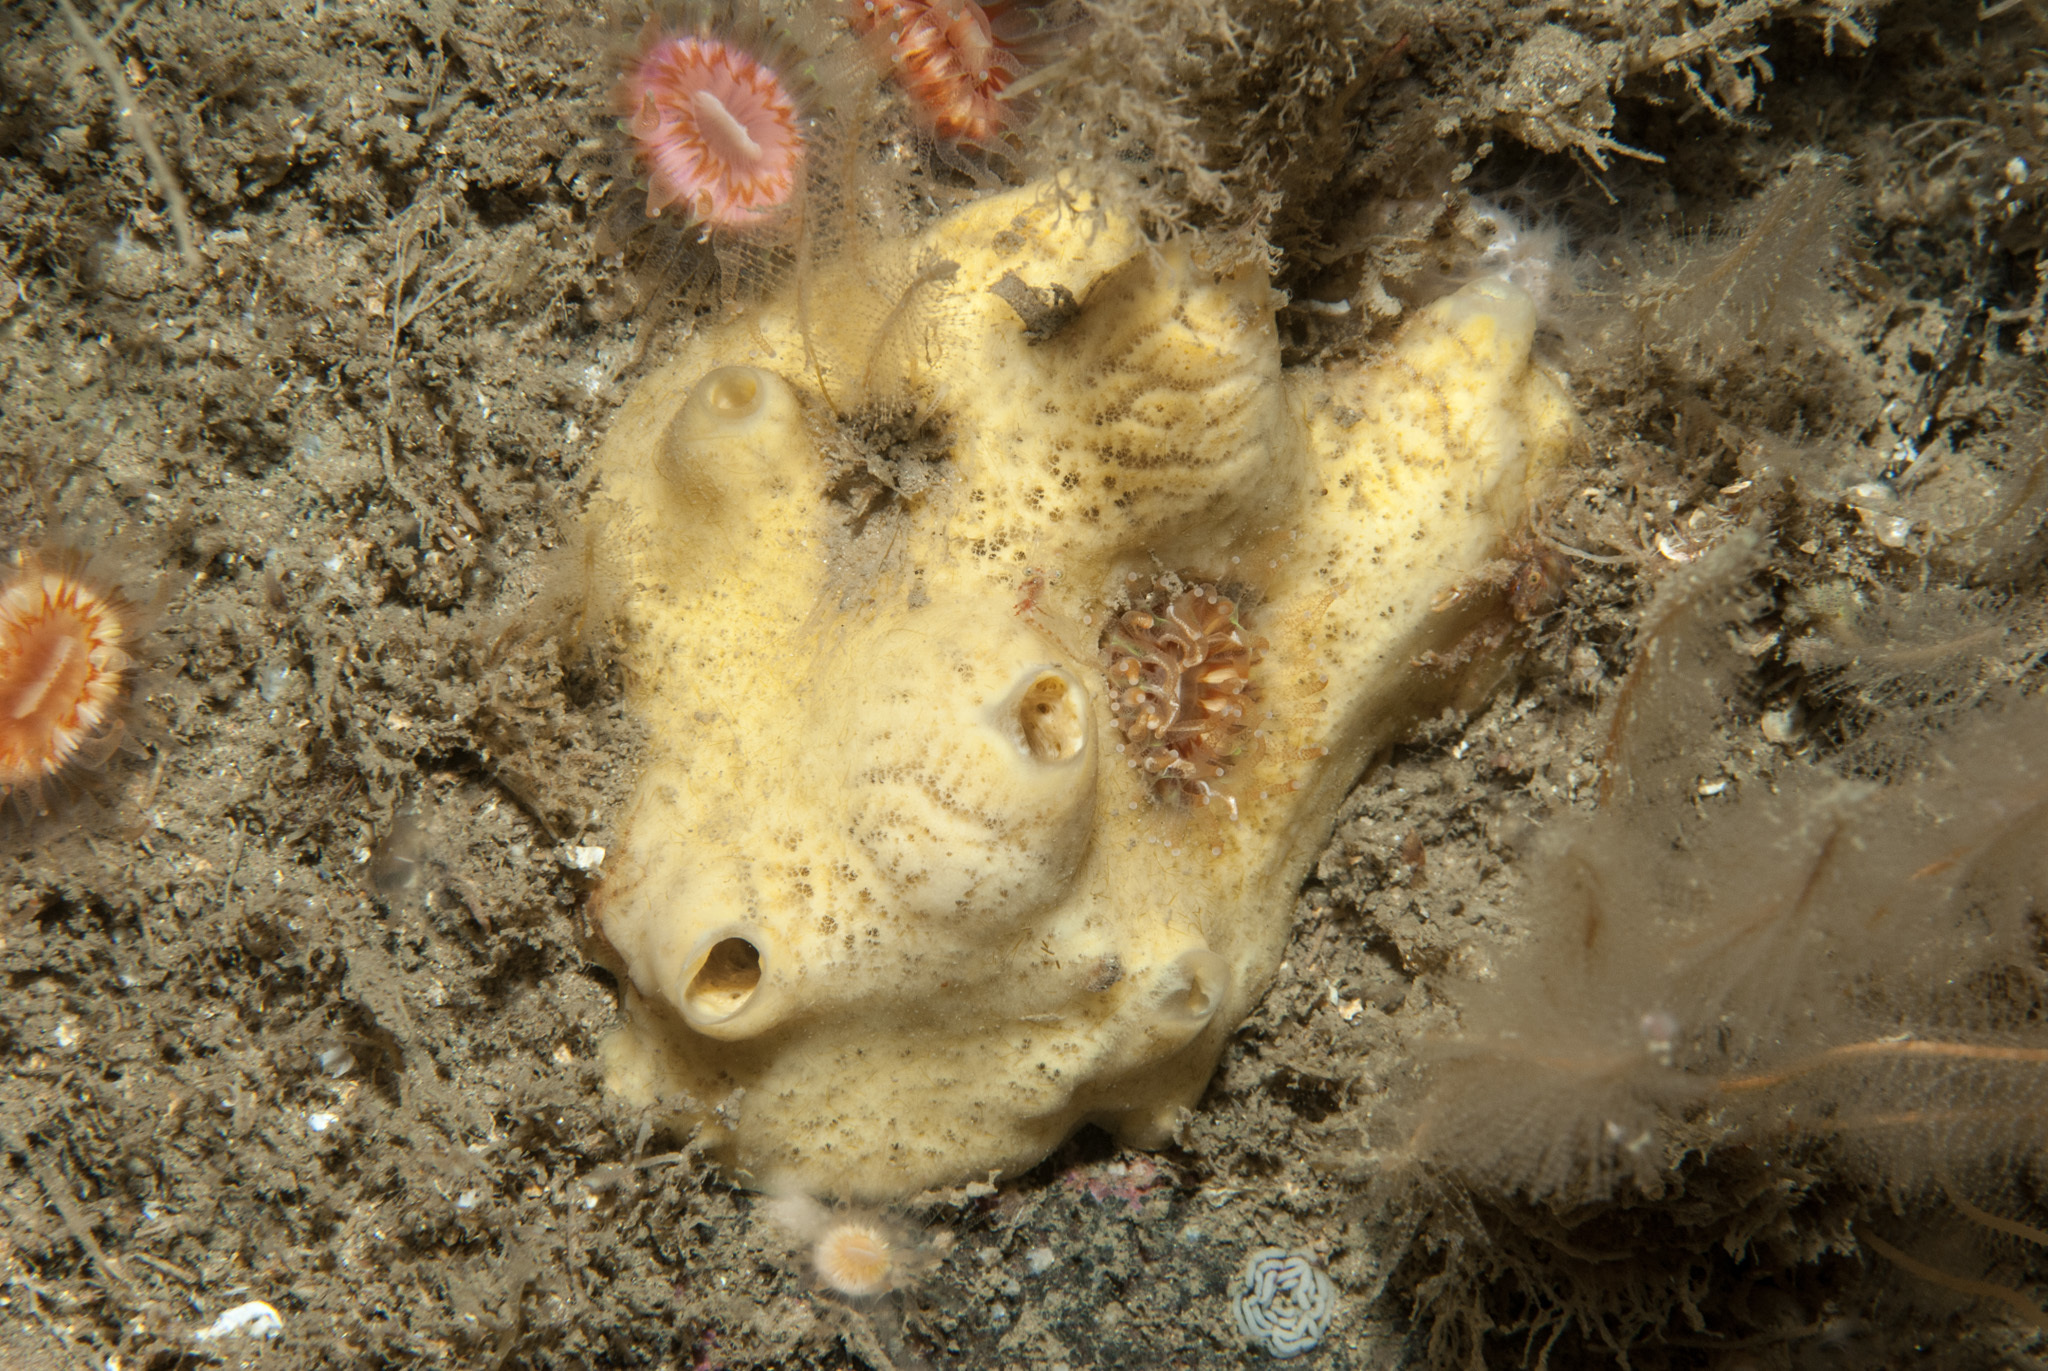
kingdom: Animalia
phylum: Porifera
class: Demospongiae
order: Poecilosclerida
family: Myxillidae
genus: Myxilla
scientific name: Myxilla incrustans
